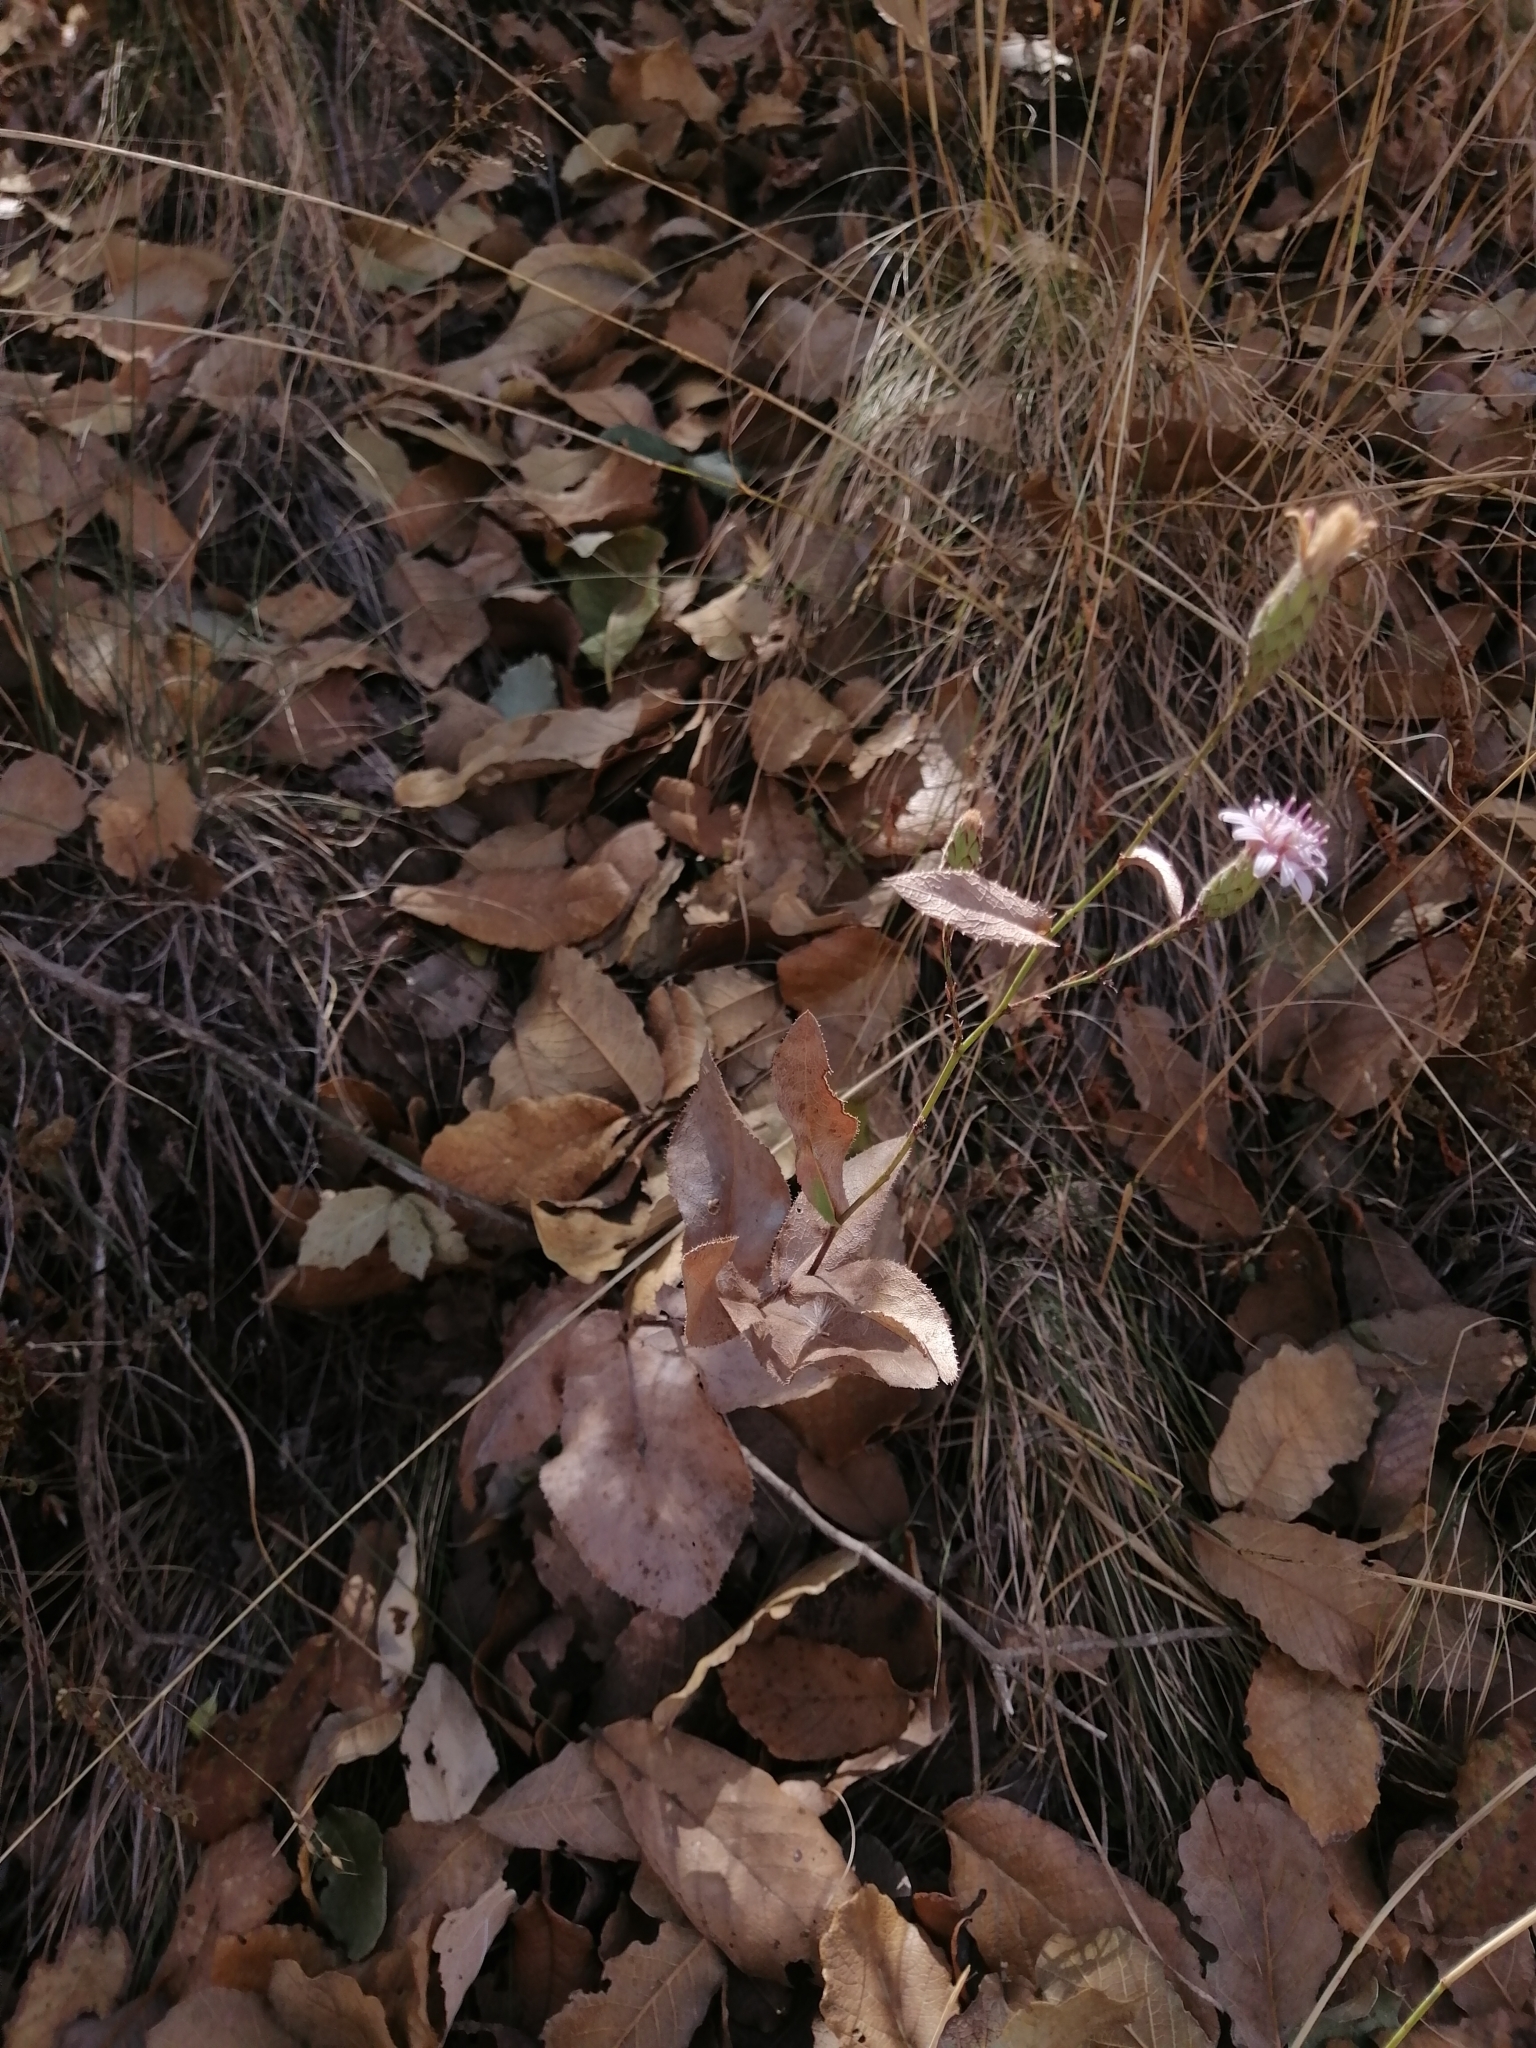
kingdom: Plantae
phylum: Tracheophyta
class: Magnoliopsida
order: Asterales
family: Asteraceae
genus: Acourtia
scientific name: Acourtia turbinata
